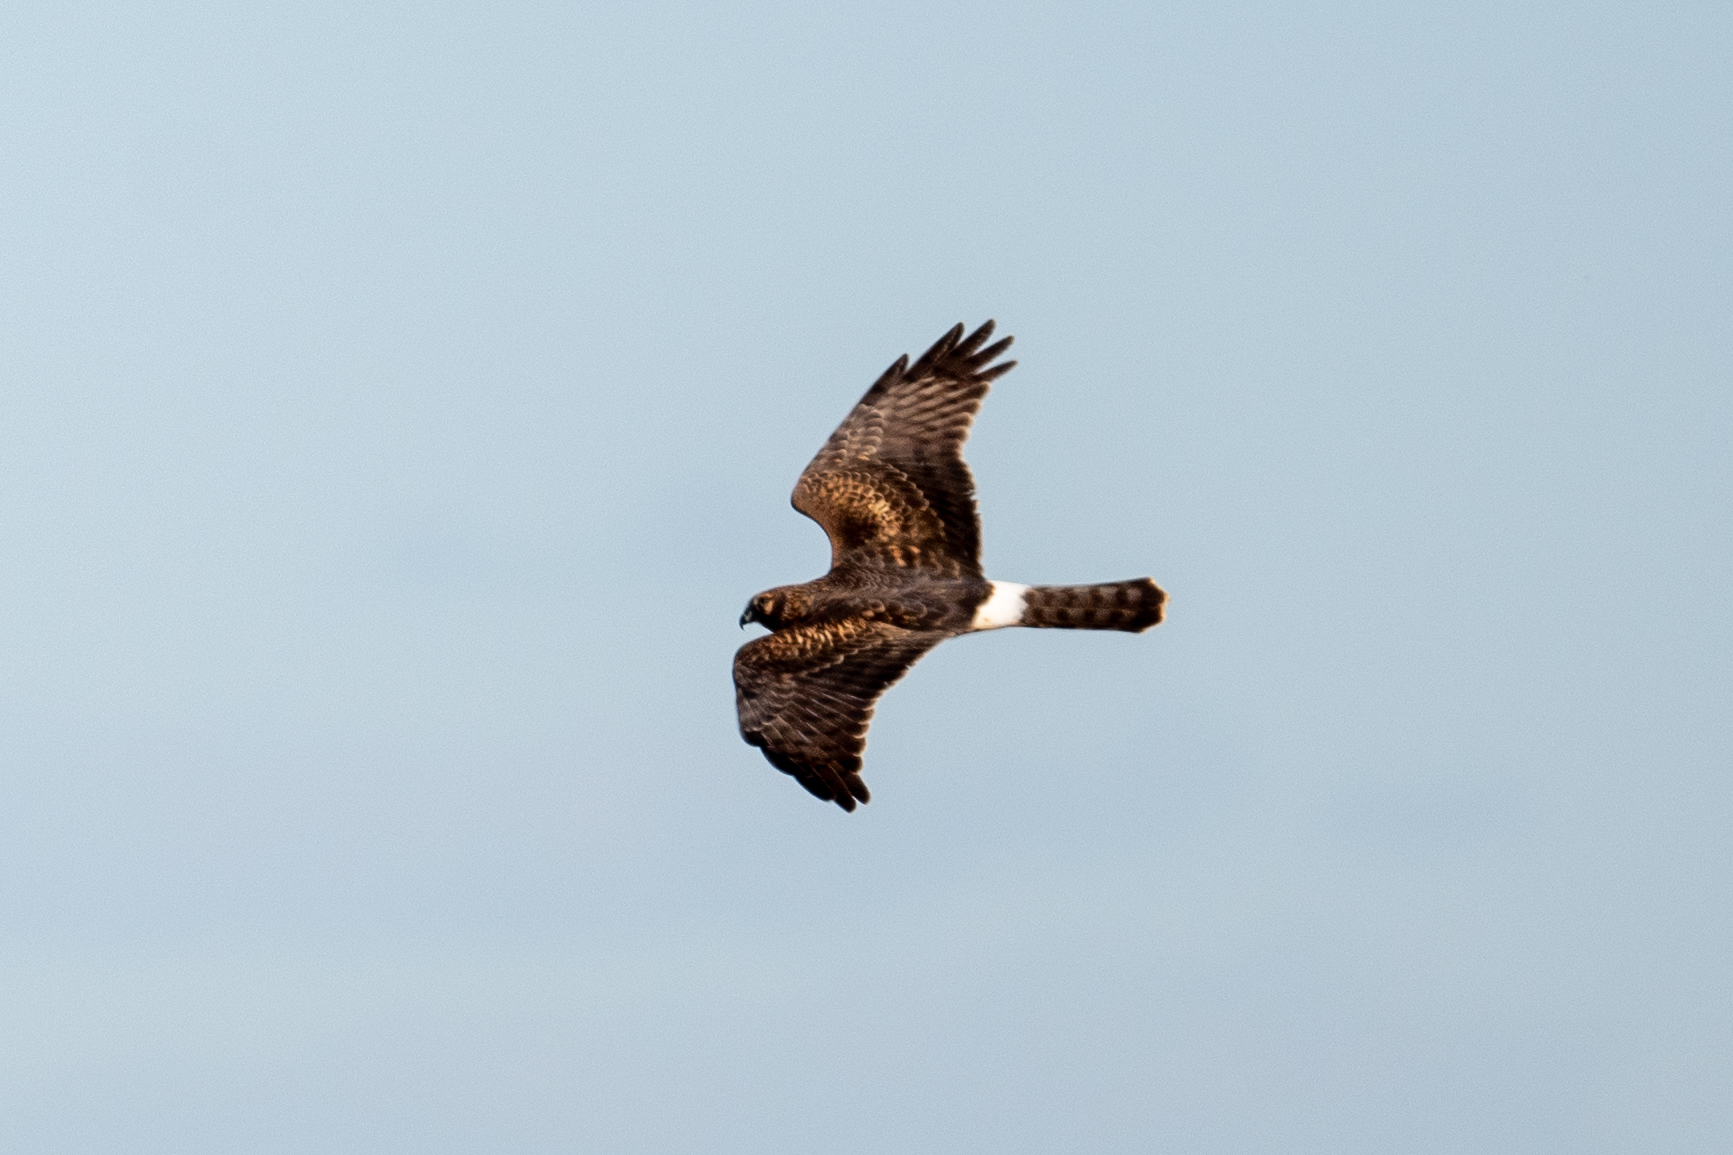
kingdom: Animalia
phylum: Chordata
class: Aves
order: Accipitriformes
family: Accipitridae
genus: Circus
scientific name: Circus cyaneus
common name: Hen harrier
